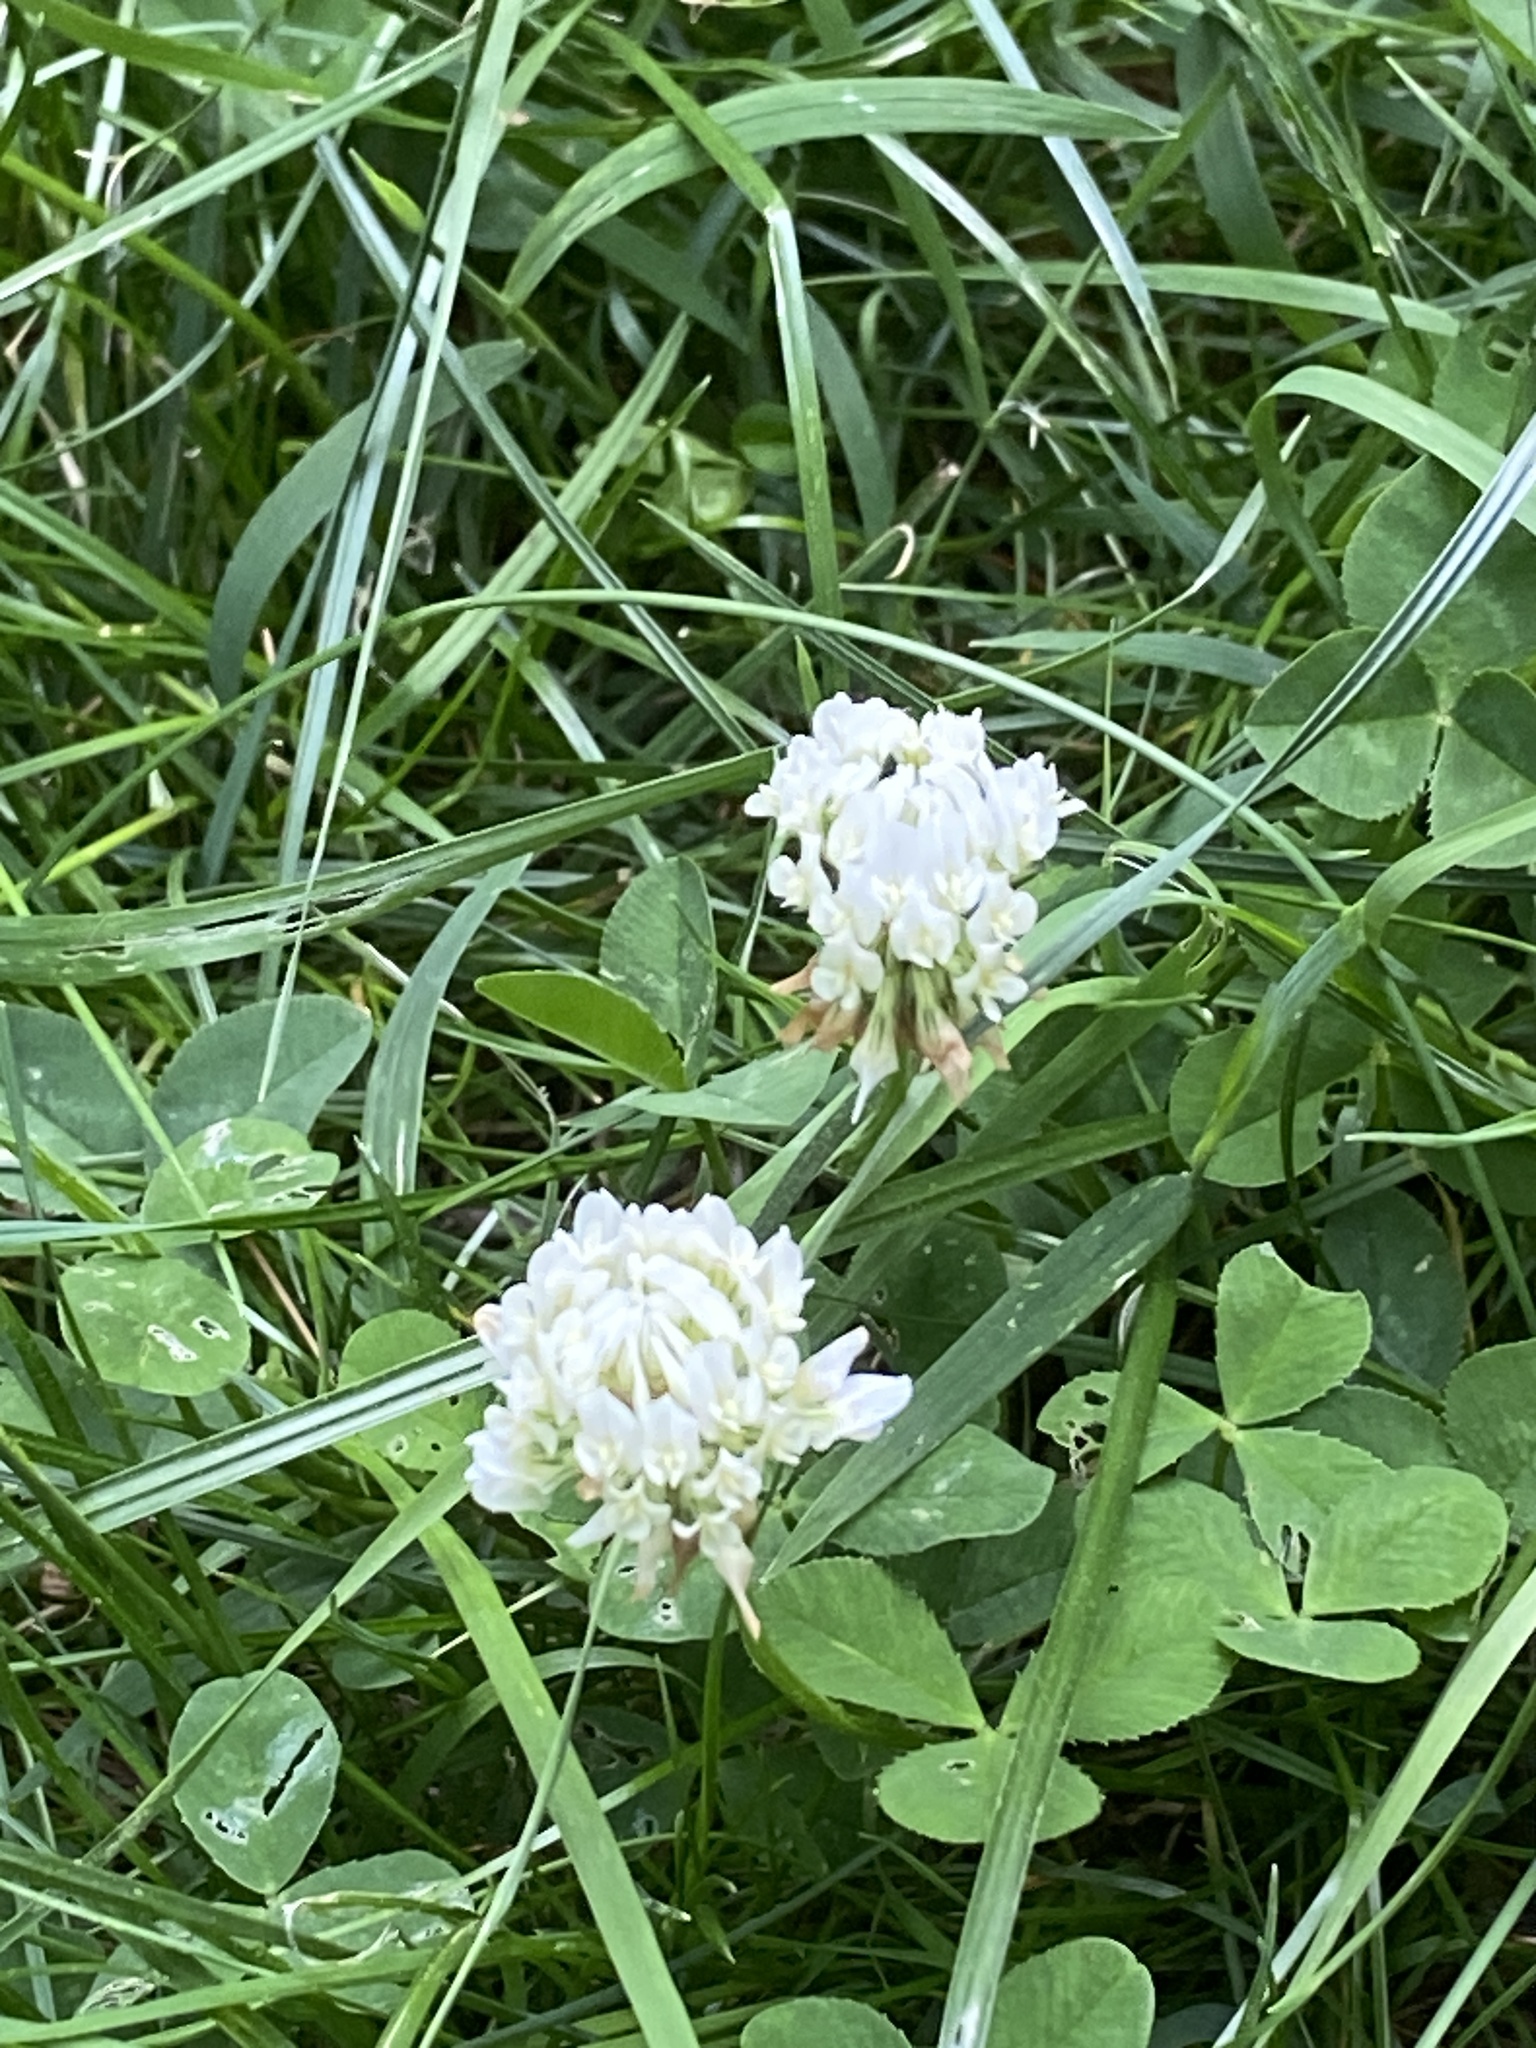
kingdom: Plantae
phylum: Tracheophyta
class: Magnoliopsida
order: Fabales
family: Fabaceae
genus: Trifolium
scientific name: Trifolium repens
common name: White clover
